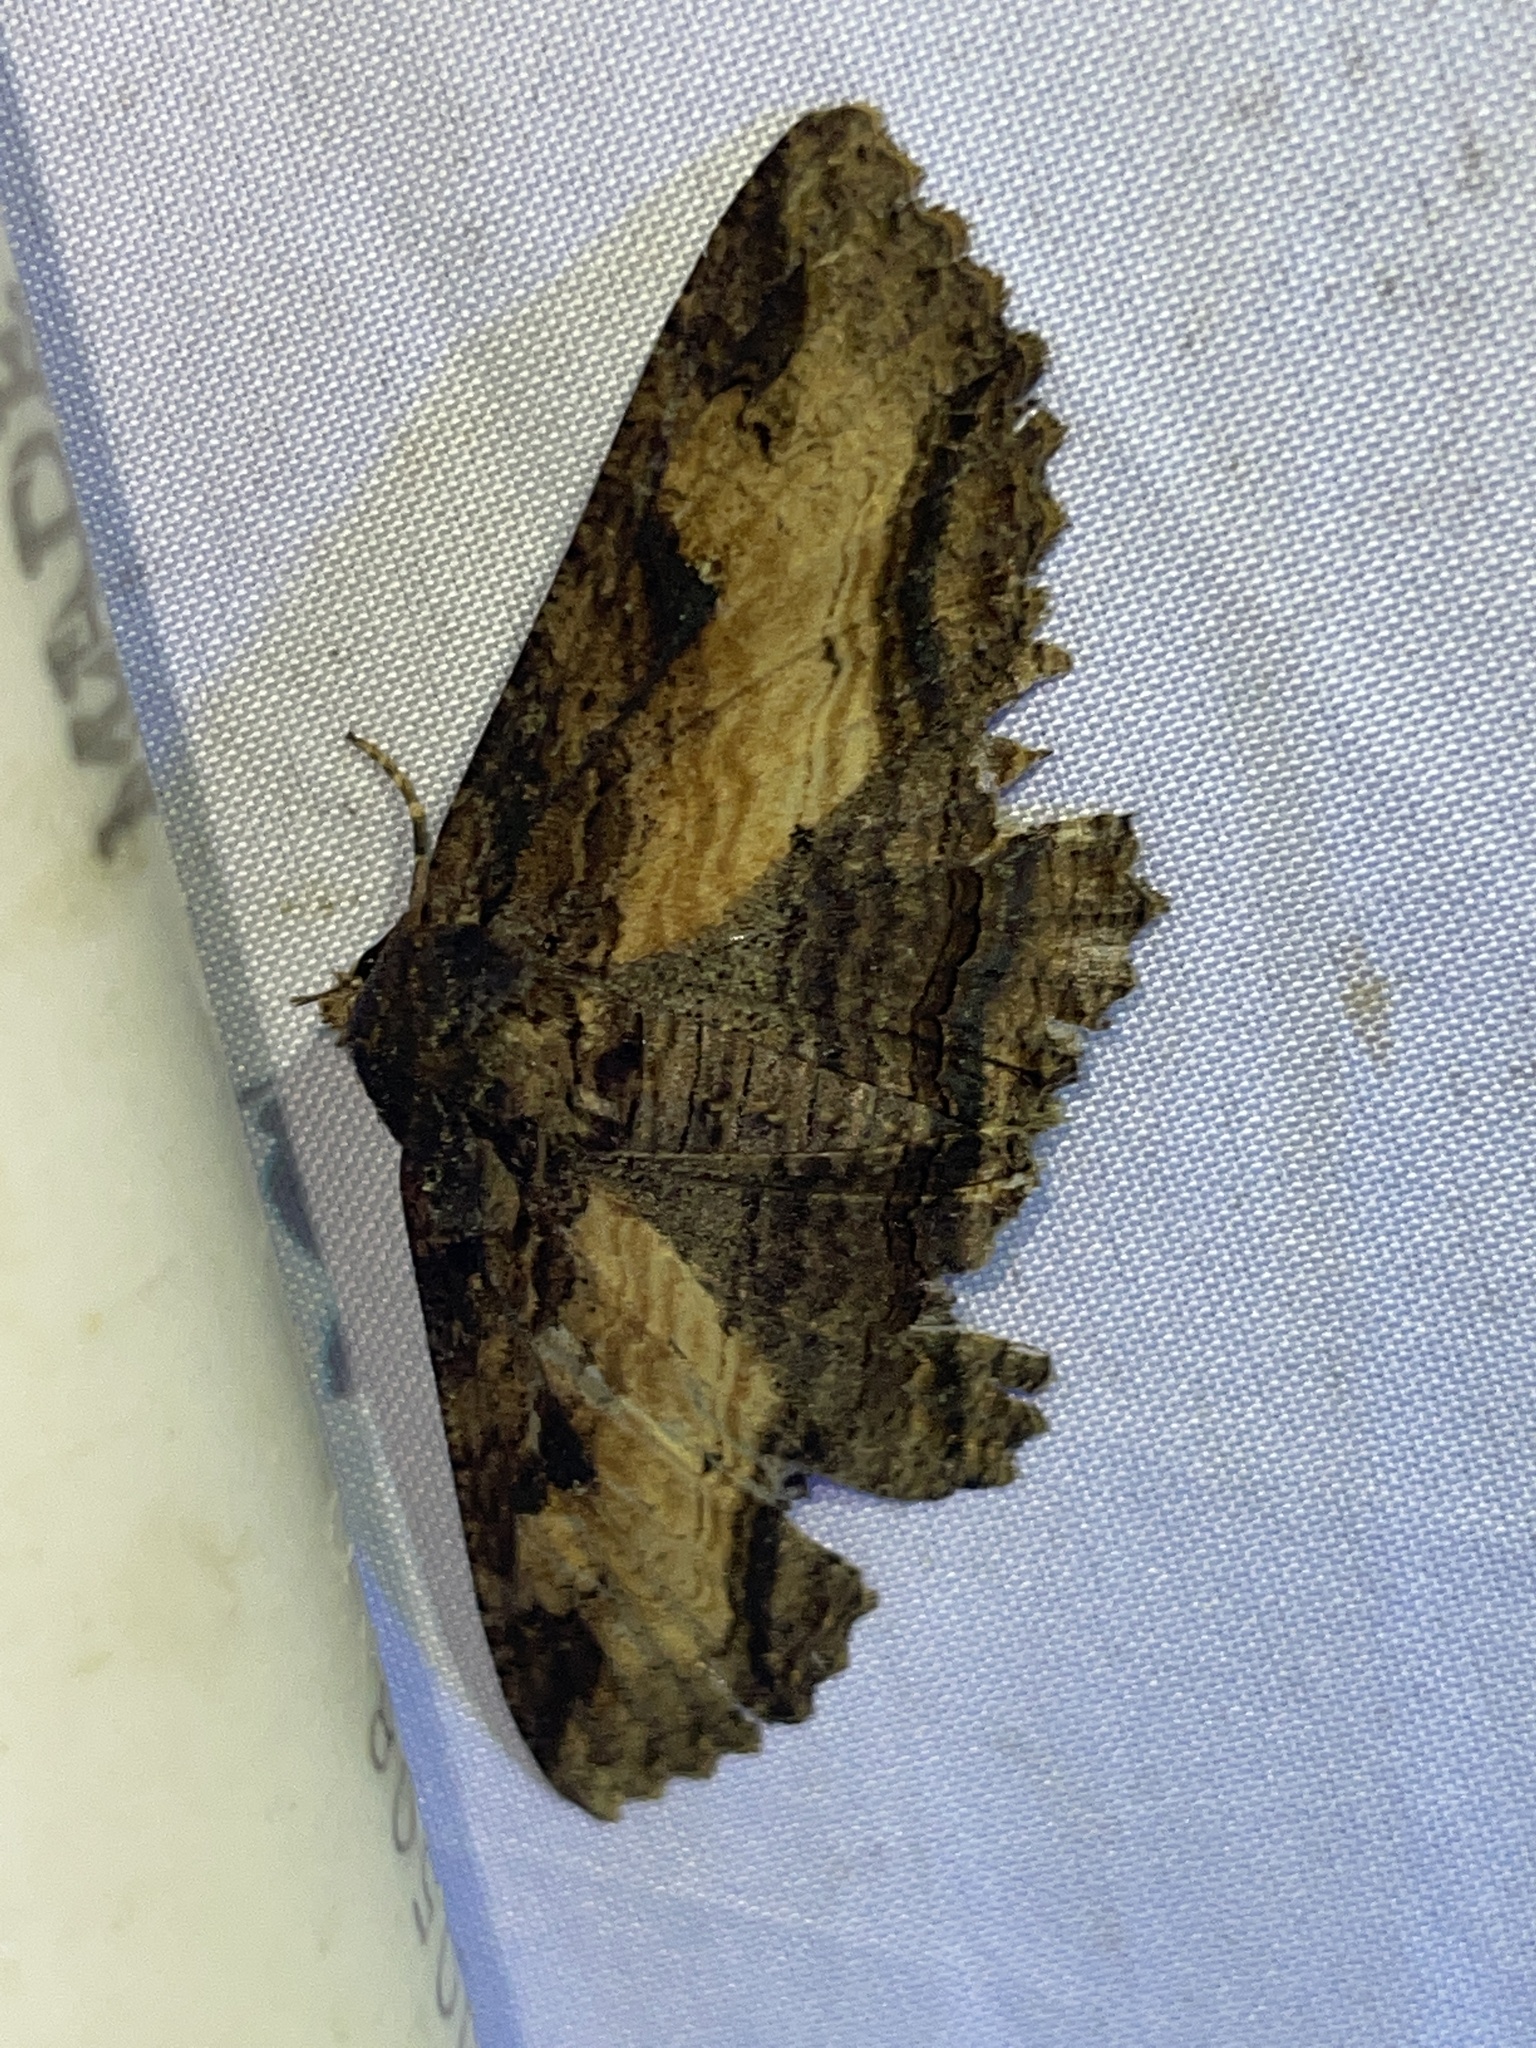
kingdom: Animalia
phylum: Arthropoda
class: Insecta
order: Lepidoptera
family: Erebidae
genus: Zale
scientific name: Zale lunata
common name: Lunate zale moth
